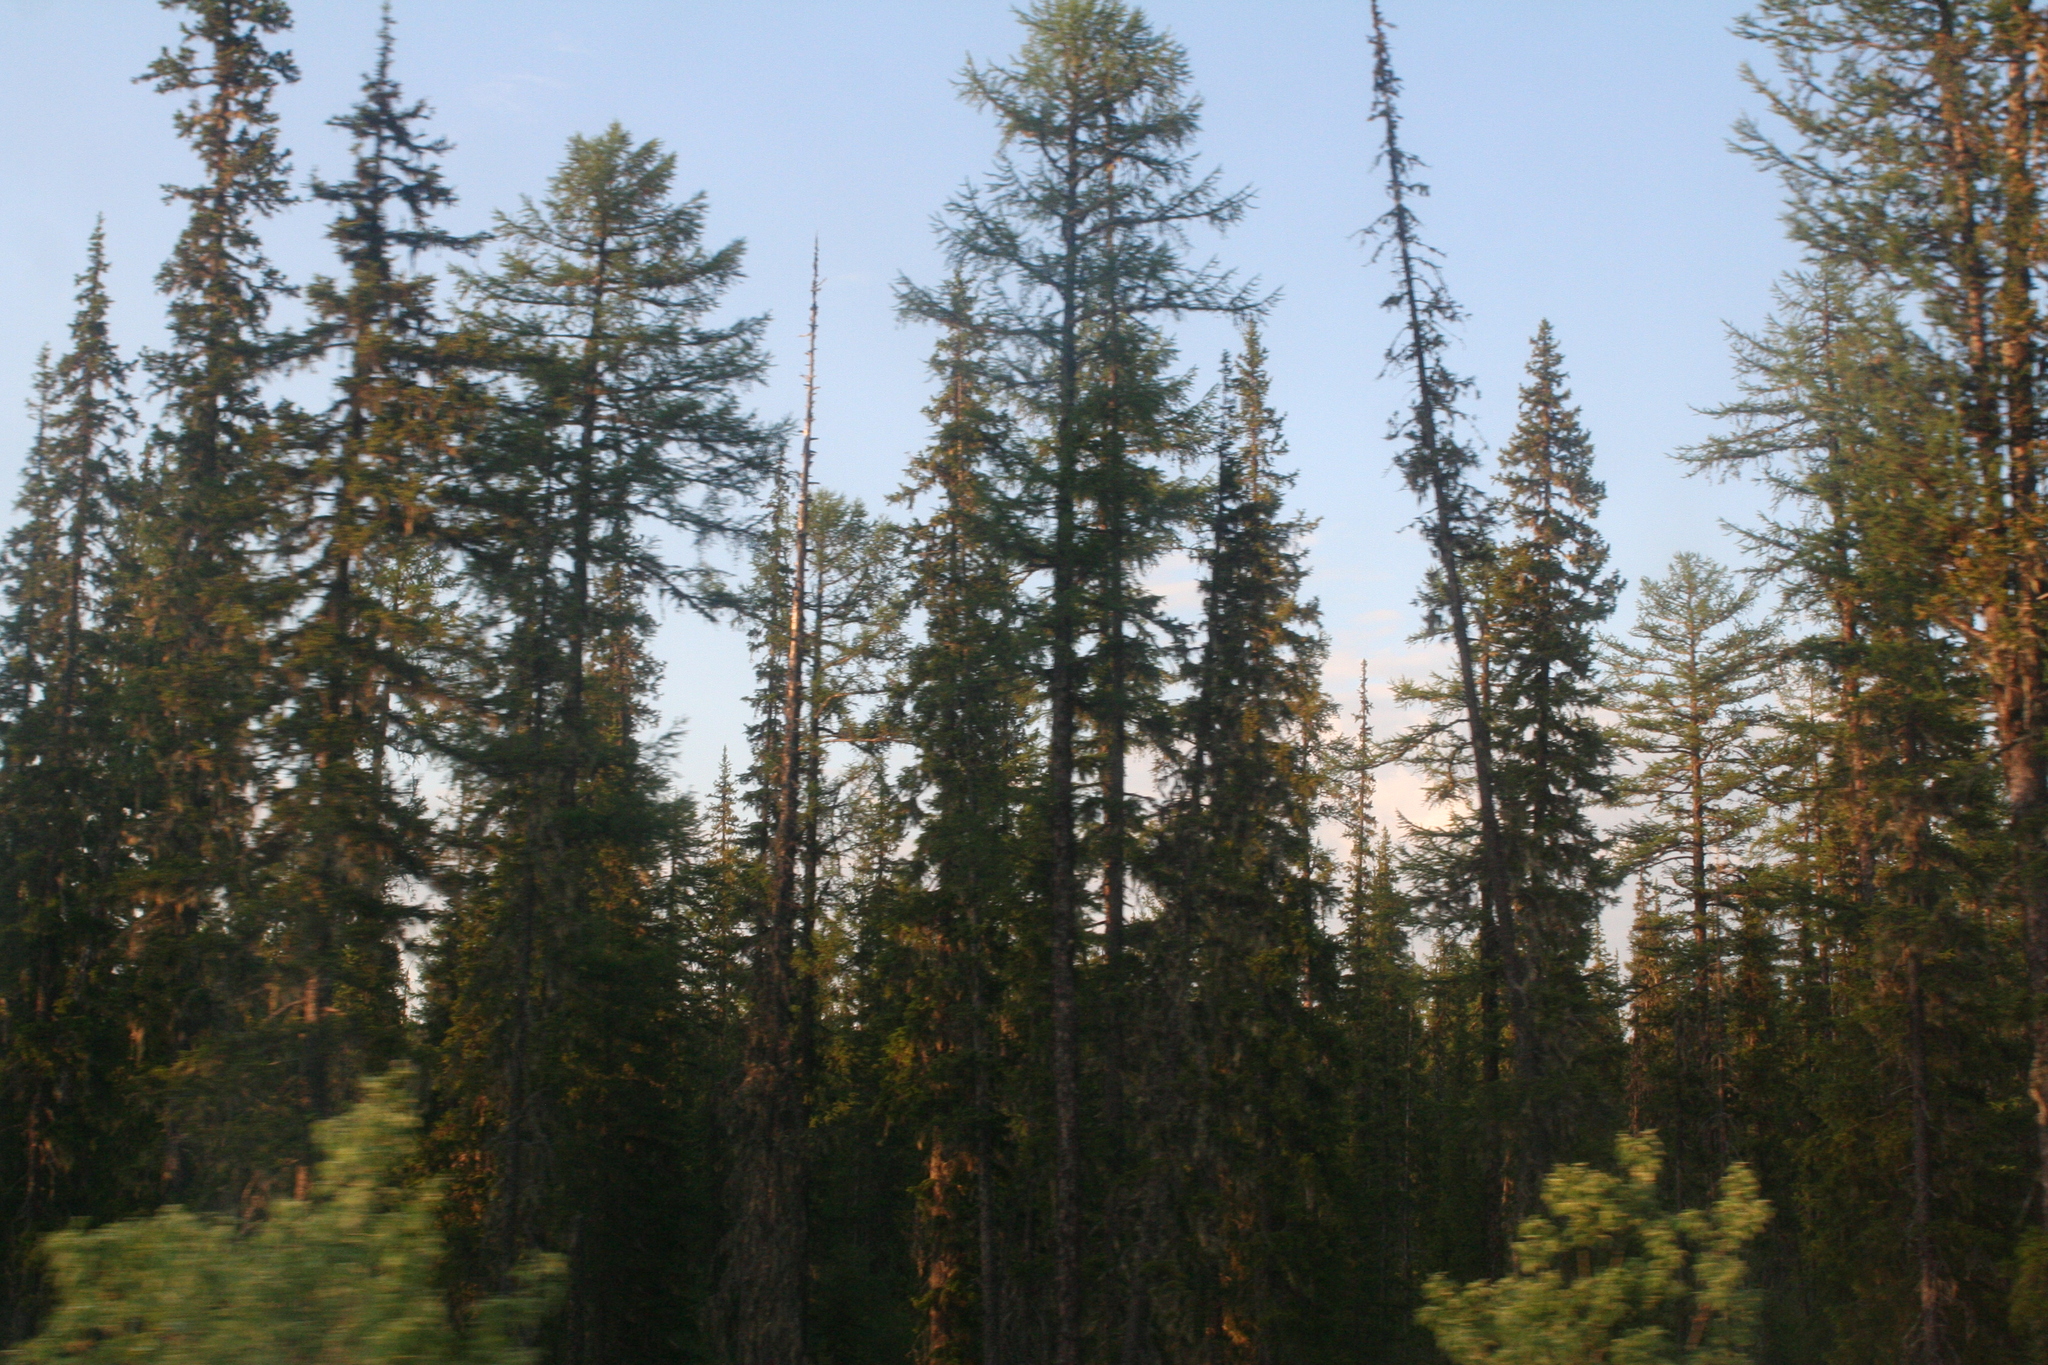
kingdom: Plantae
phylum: Tracheophyta
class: Pinopsida
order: Pinales
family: Pinaceae
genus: Picea
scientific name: Picea obovata
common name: Siberian spruce
